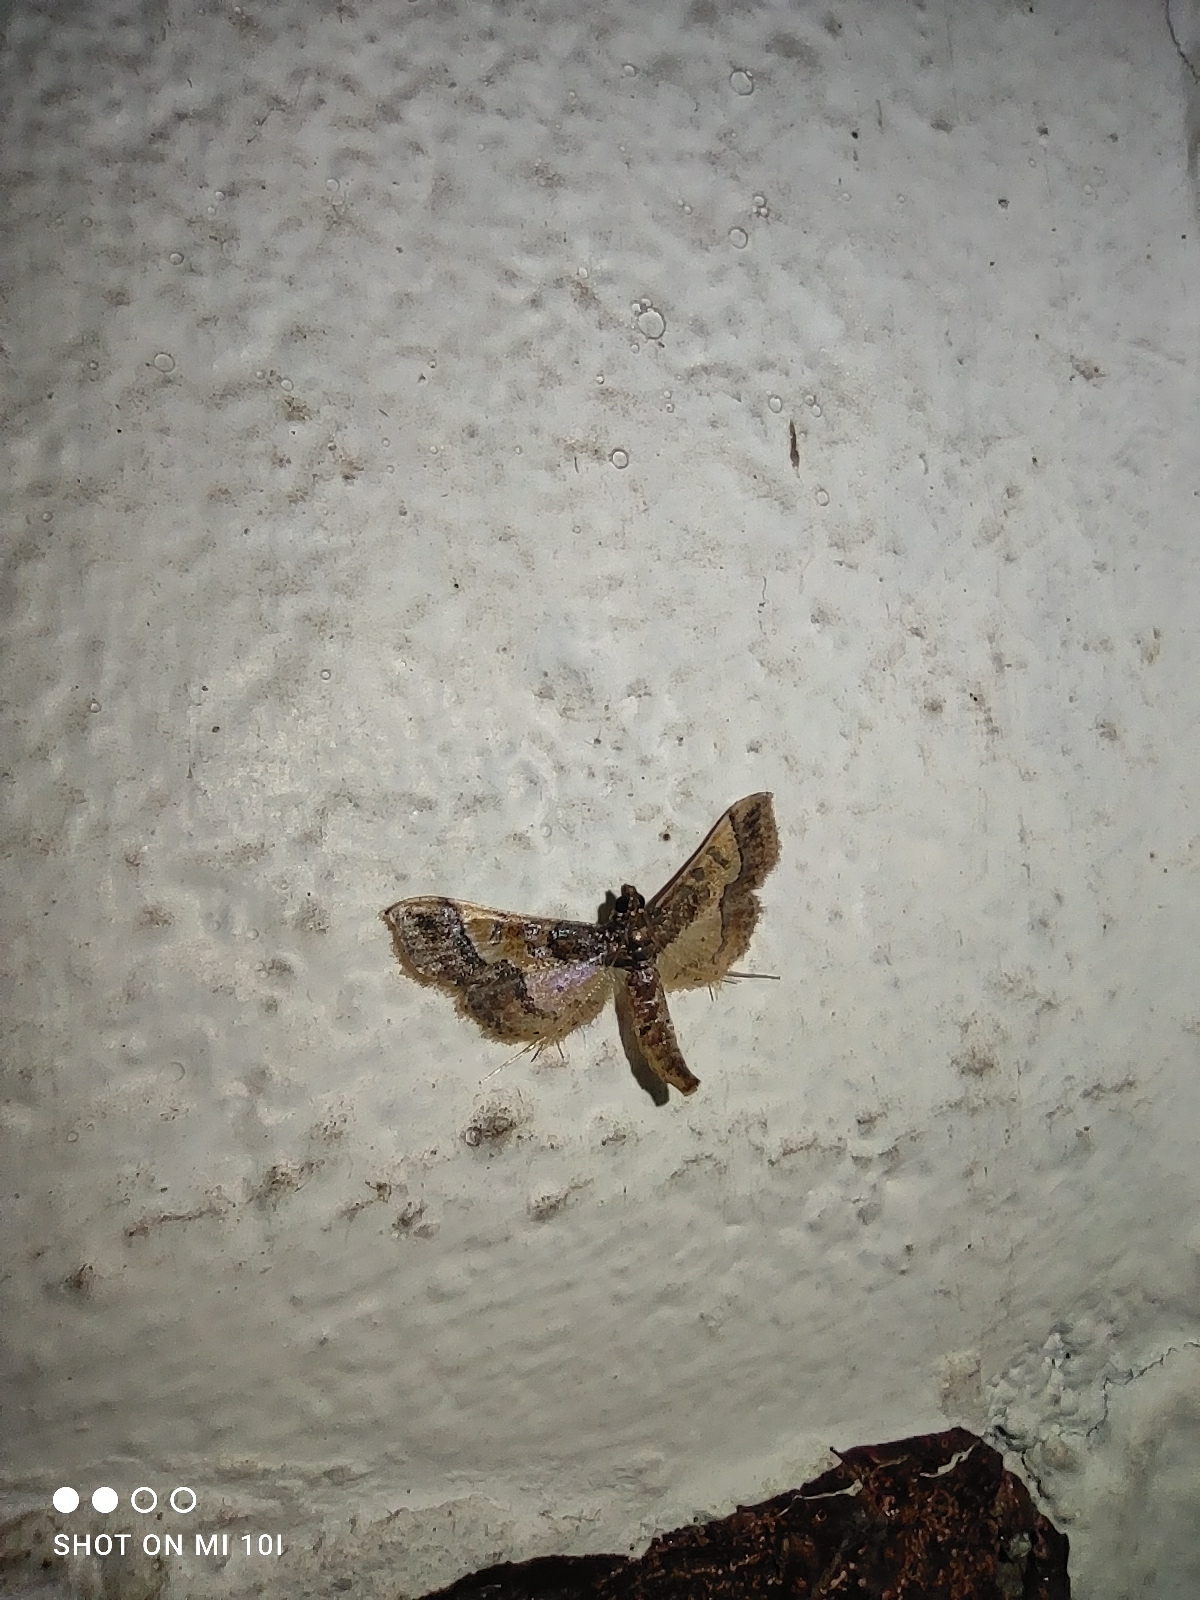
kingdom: Animalia
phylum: Arthropoda
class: Insecta
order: Lepidoptera
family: Crambidae
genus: Hydriris
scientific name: Hydriris ornatalis
